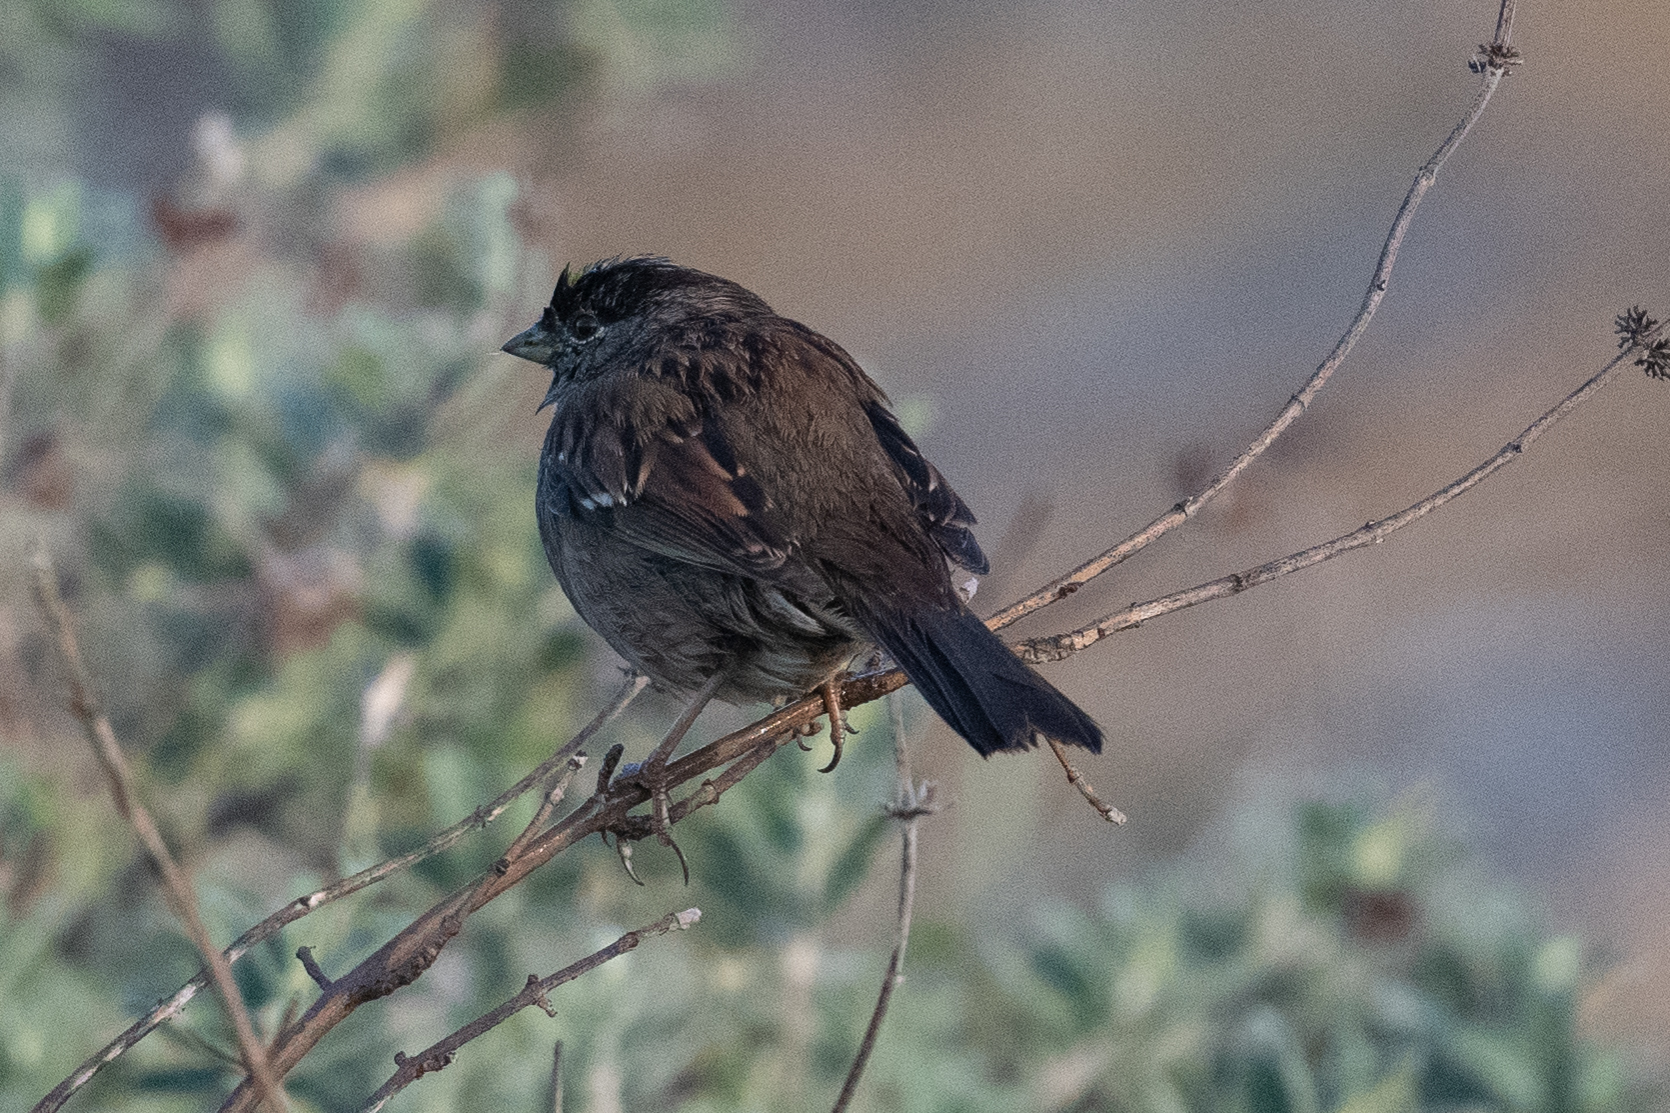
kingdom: Animalia
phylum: Chordata
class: Aves
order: Passeriformes
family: Passerellidae
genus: Zonotrichia
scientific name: Zonotrichia atricapilla
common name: Golden-crowned sparrow
